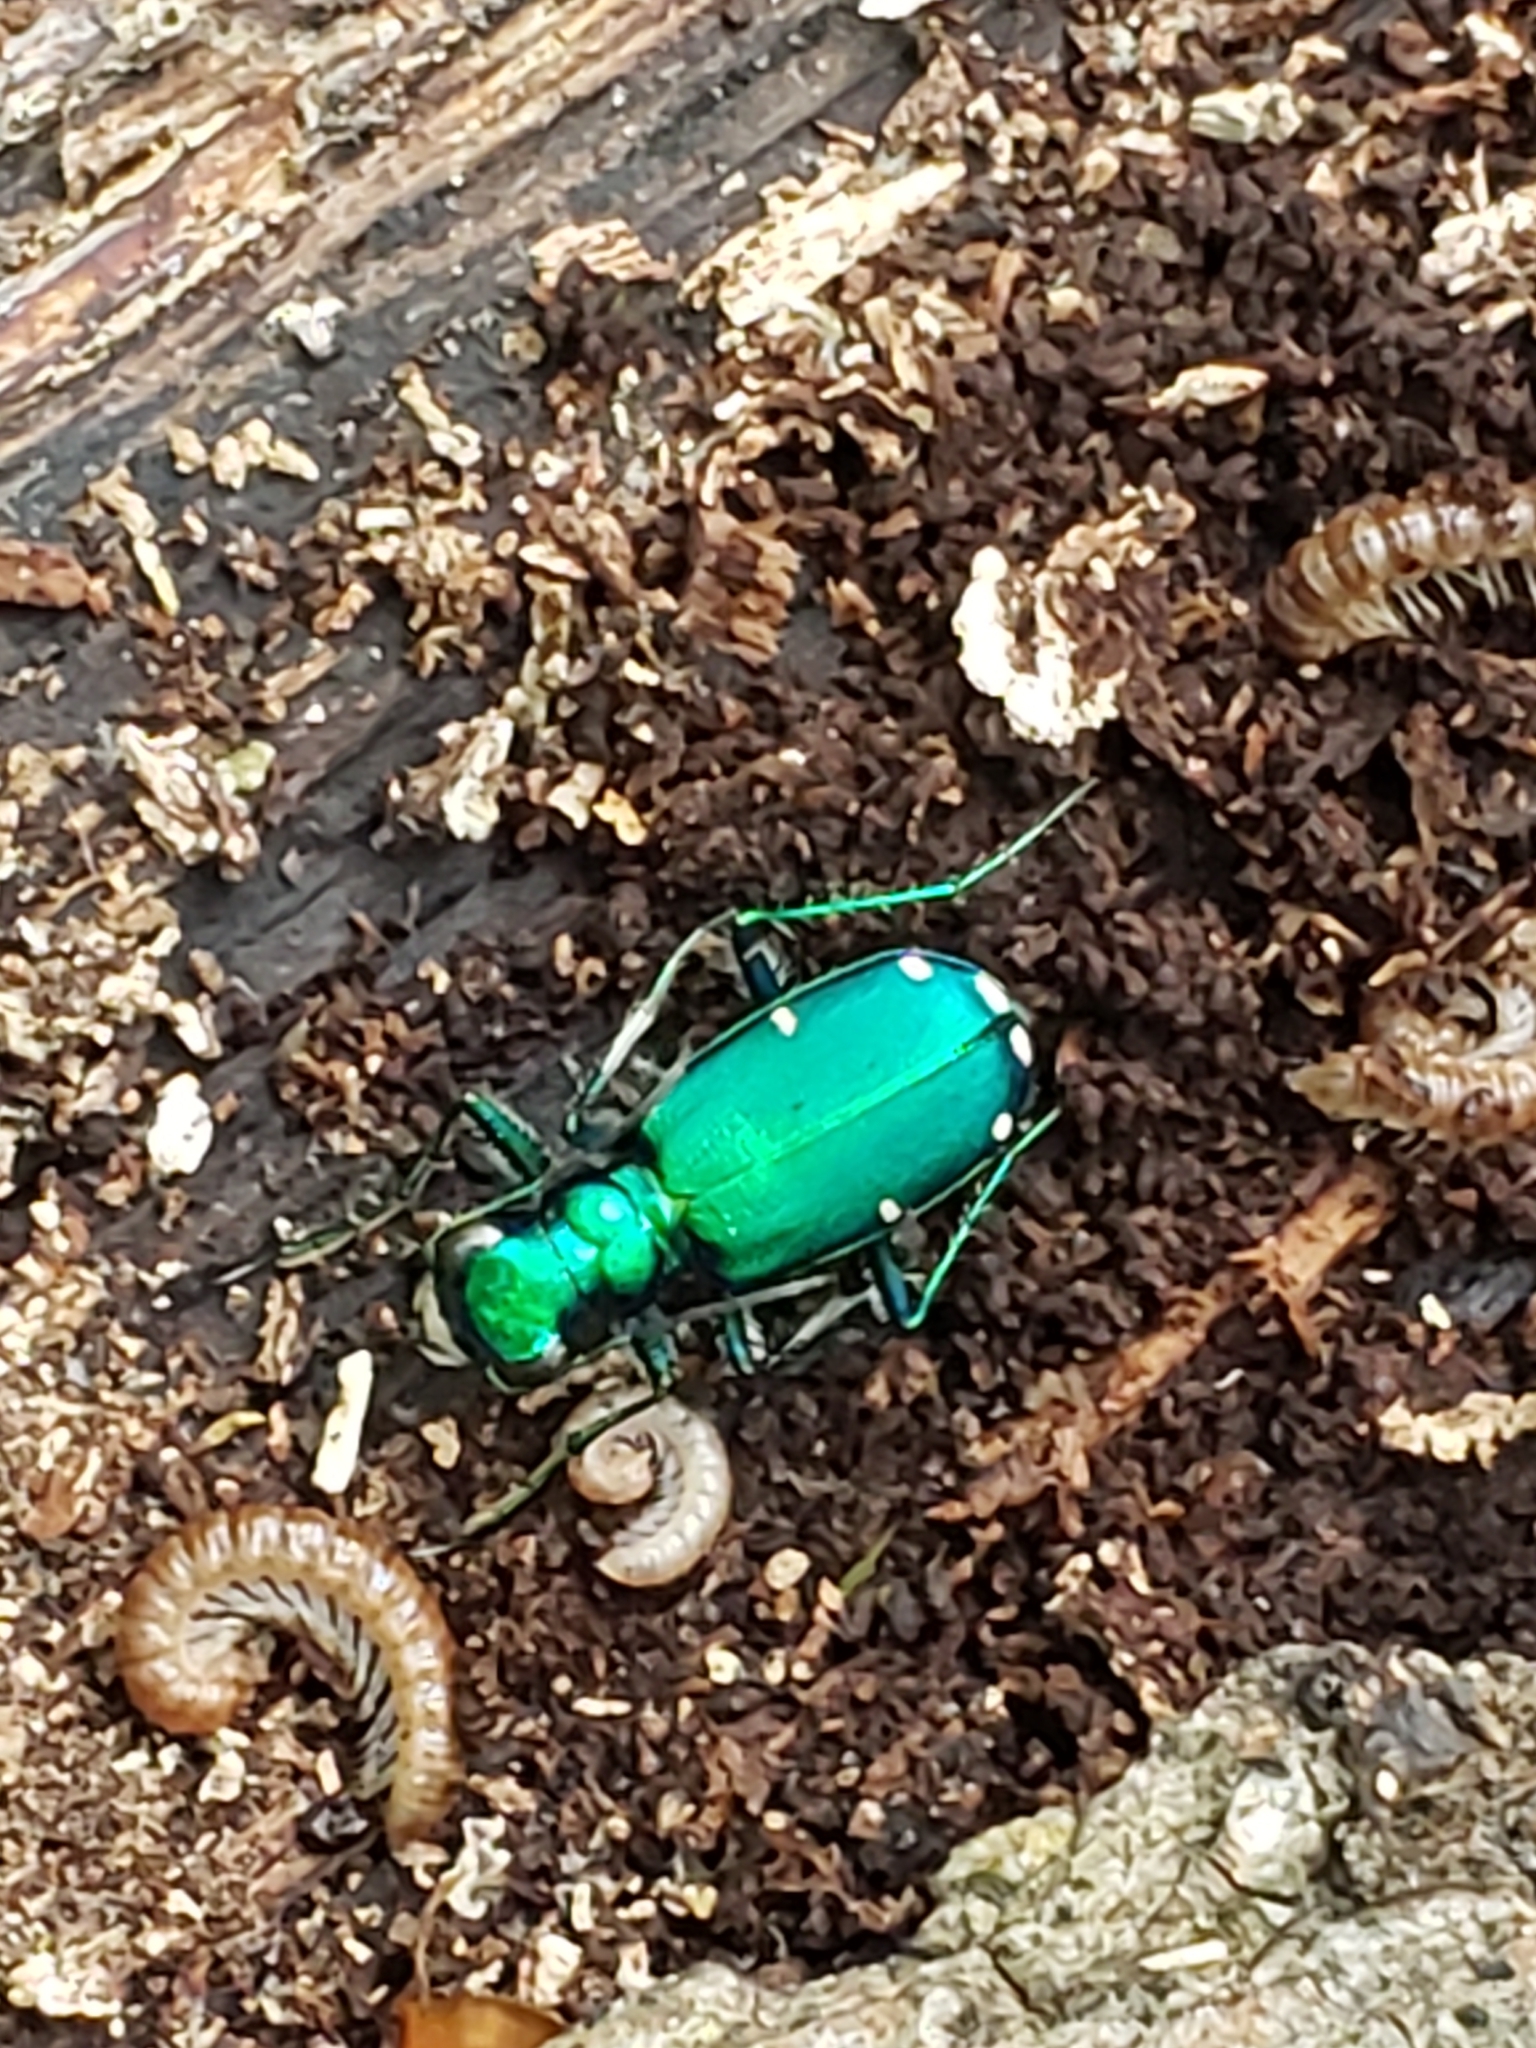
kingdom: Animalia
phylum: Arthropoda
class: Insecta
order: Coleoptera
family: Carabidae
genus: Cicindela
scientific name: Cicindela sexguttata
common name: Six-spotted tiger beetle
